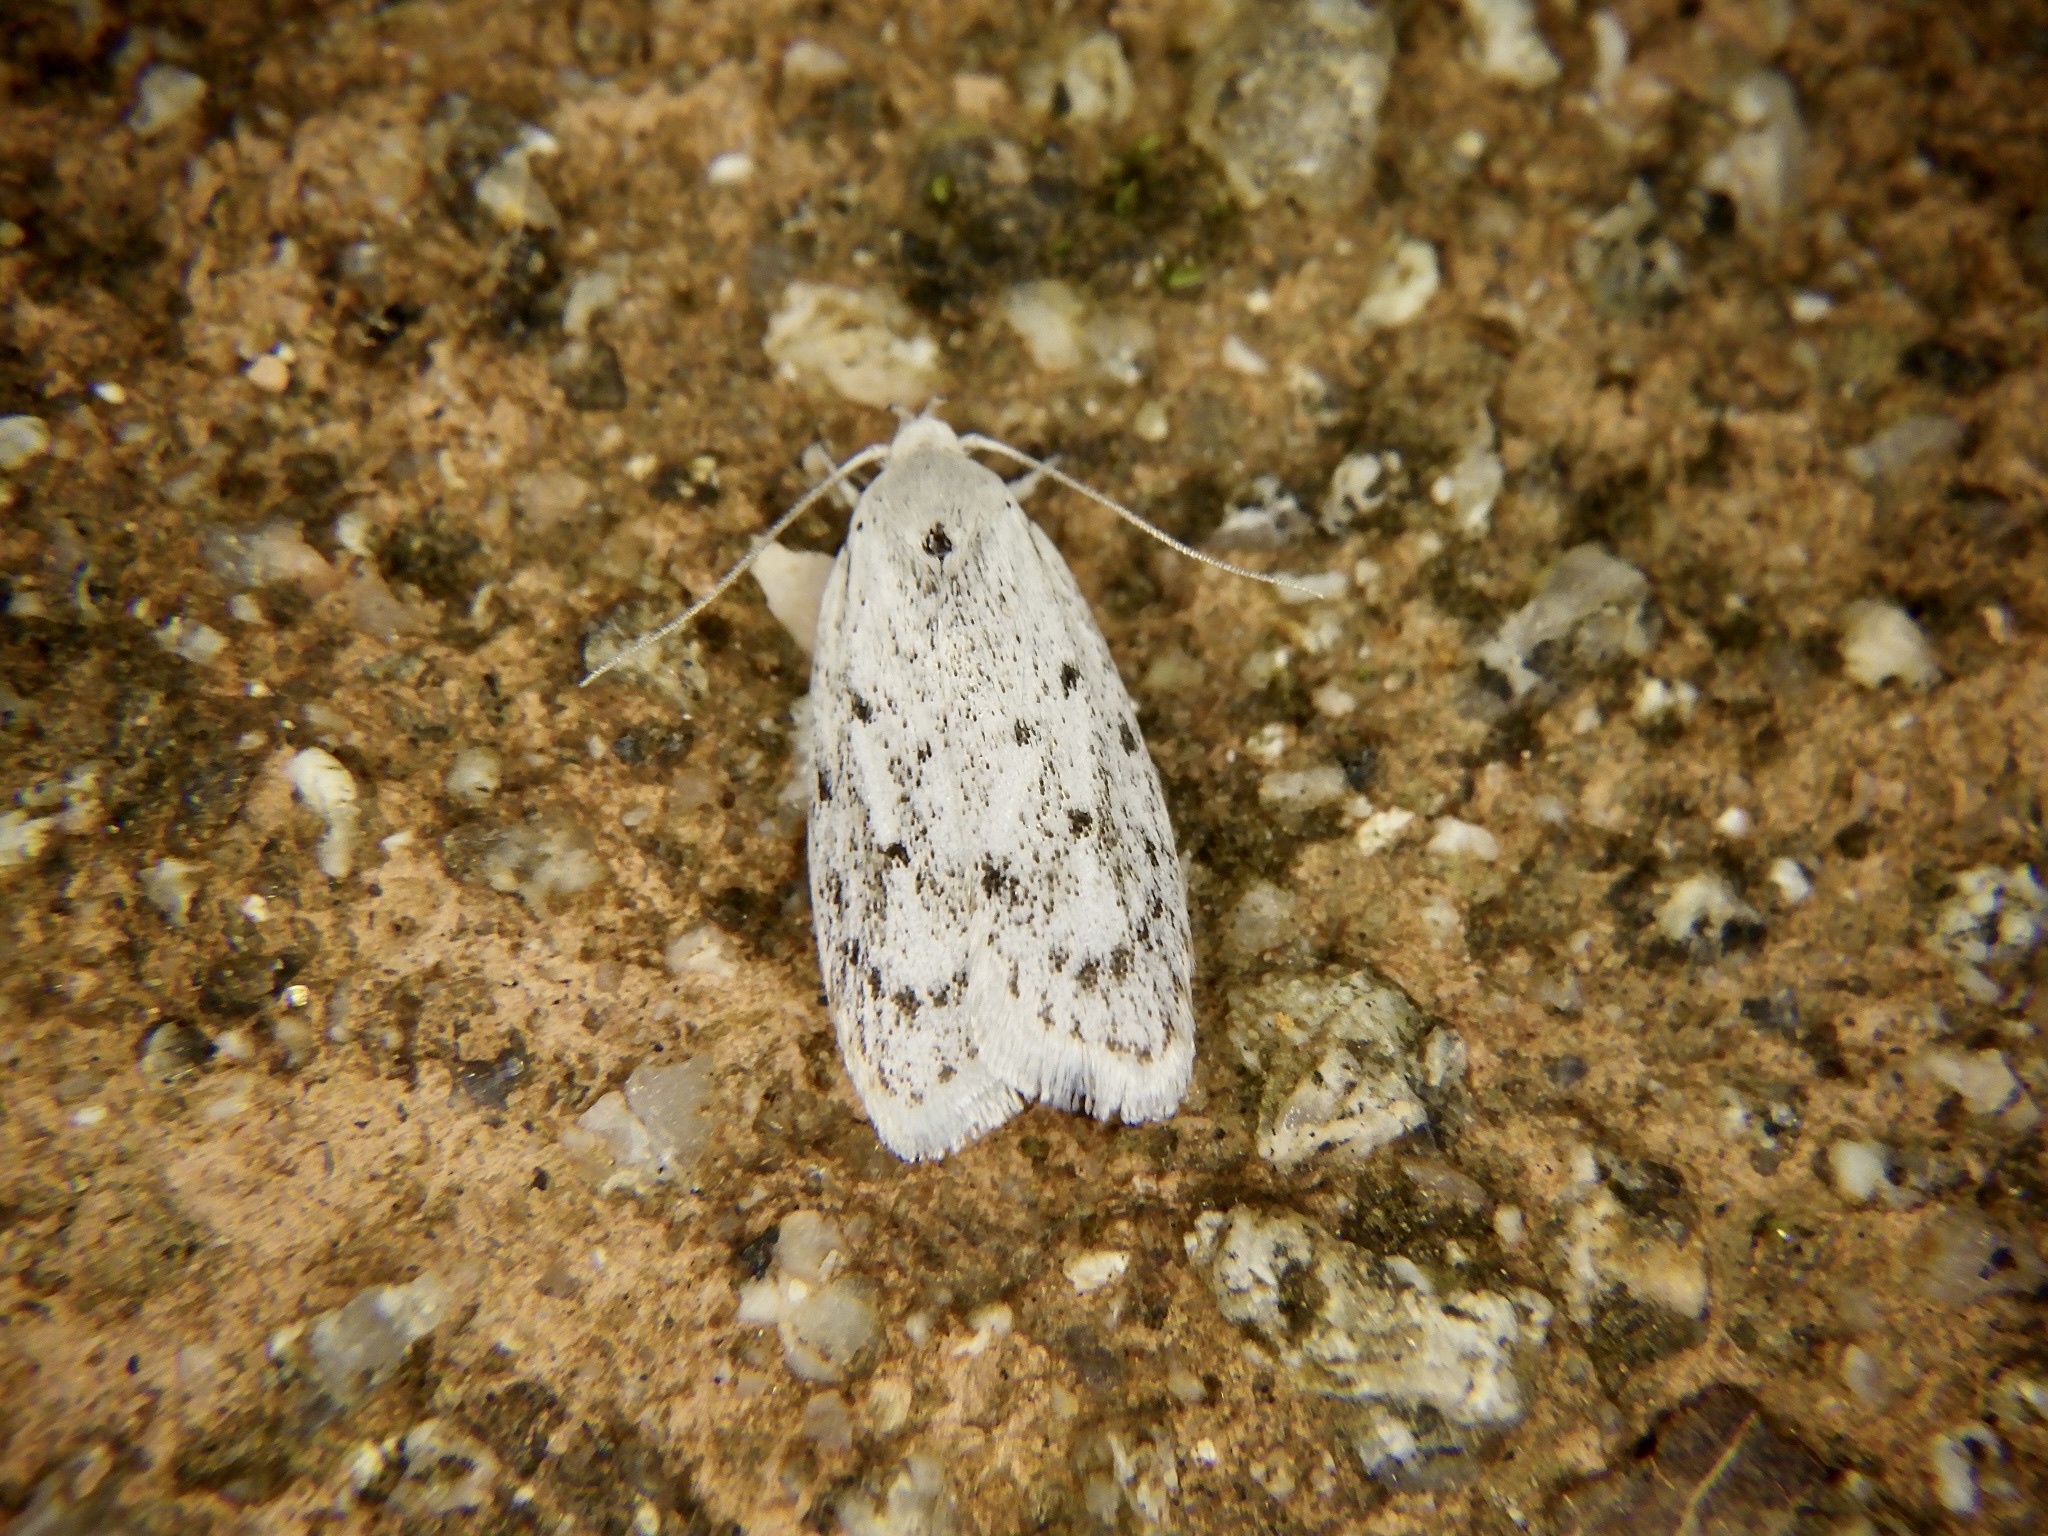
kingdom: Animalia
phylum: Arthropoda
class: Insecta
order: Lepidoptera
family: Peleopodidae
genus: Scythropiodes
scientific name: Scythropiodes leucostola
